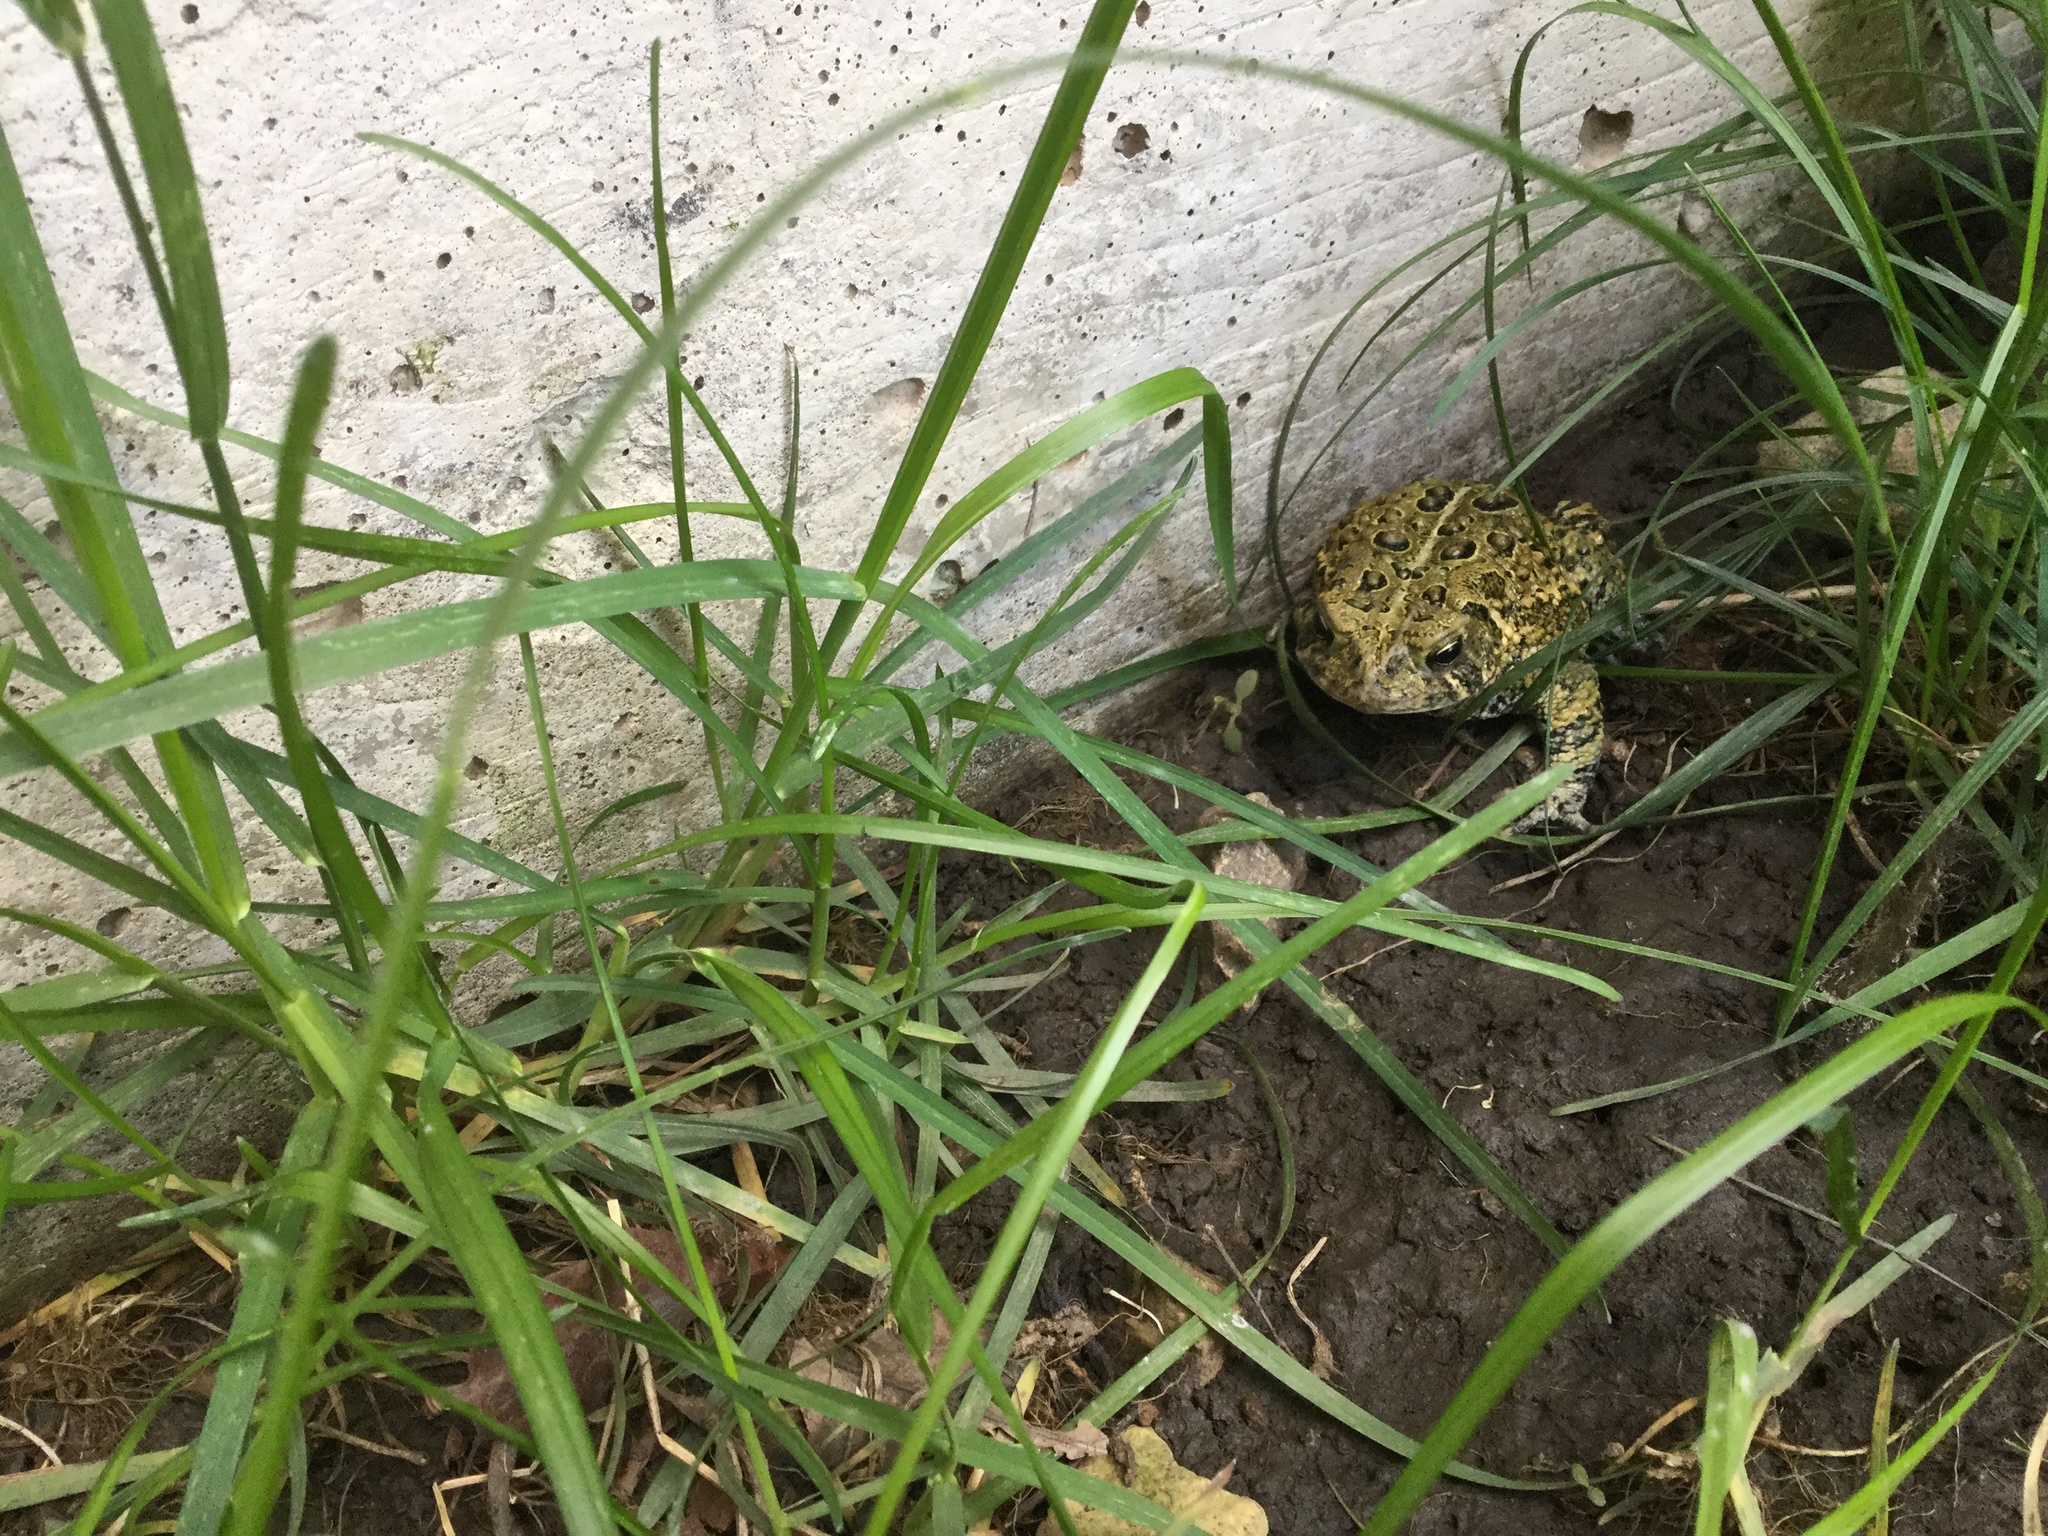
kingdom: Animalia
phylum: Chordata
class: Amphibia
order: Anura
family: Bufonidae
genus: Anaxyrus
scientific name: Anaxyrus americanus
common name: American toad
